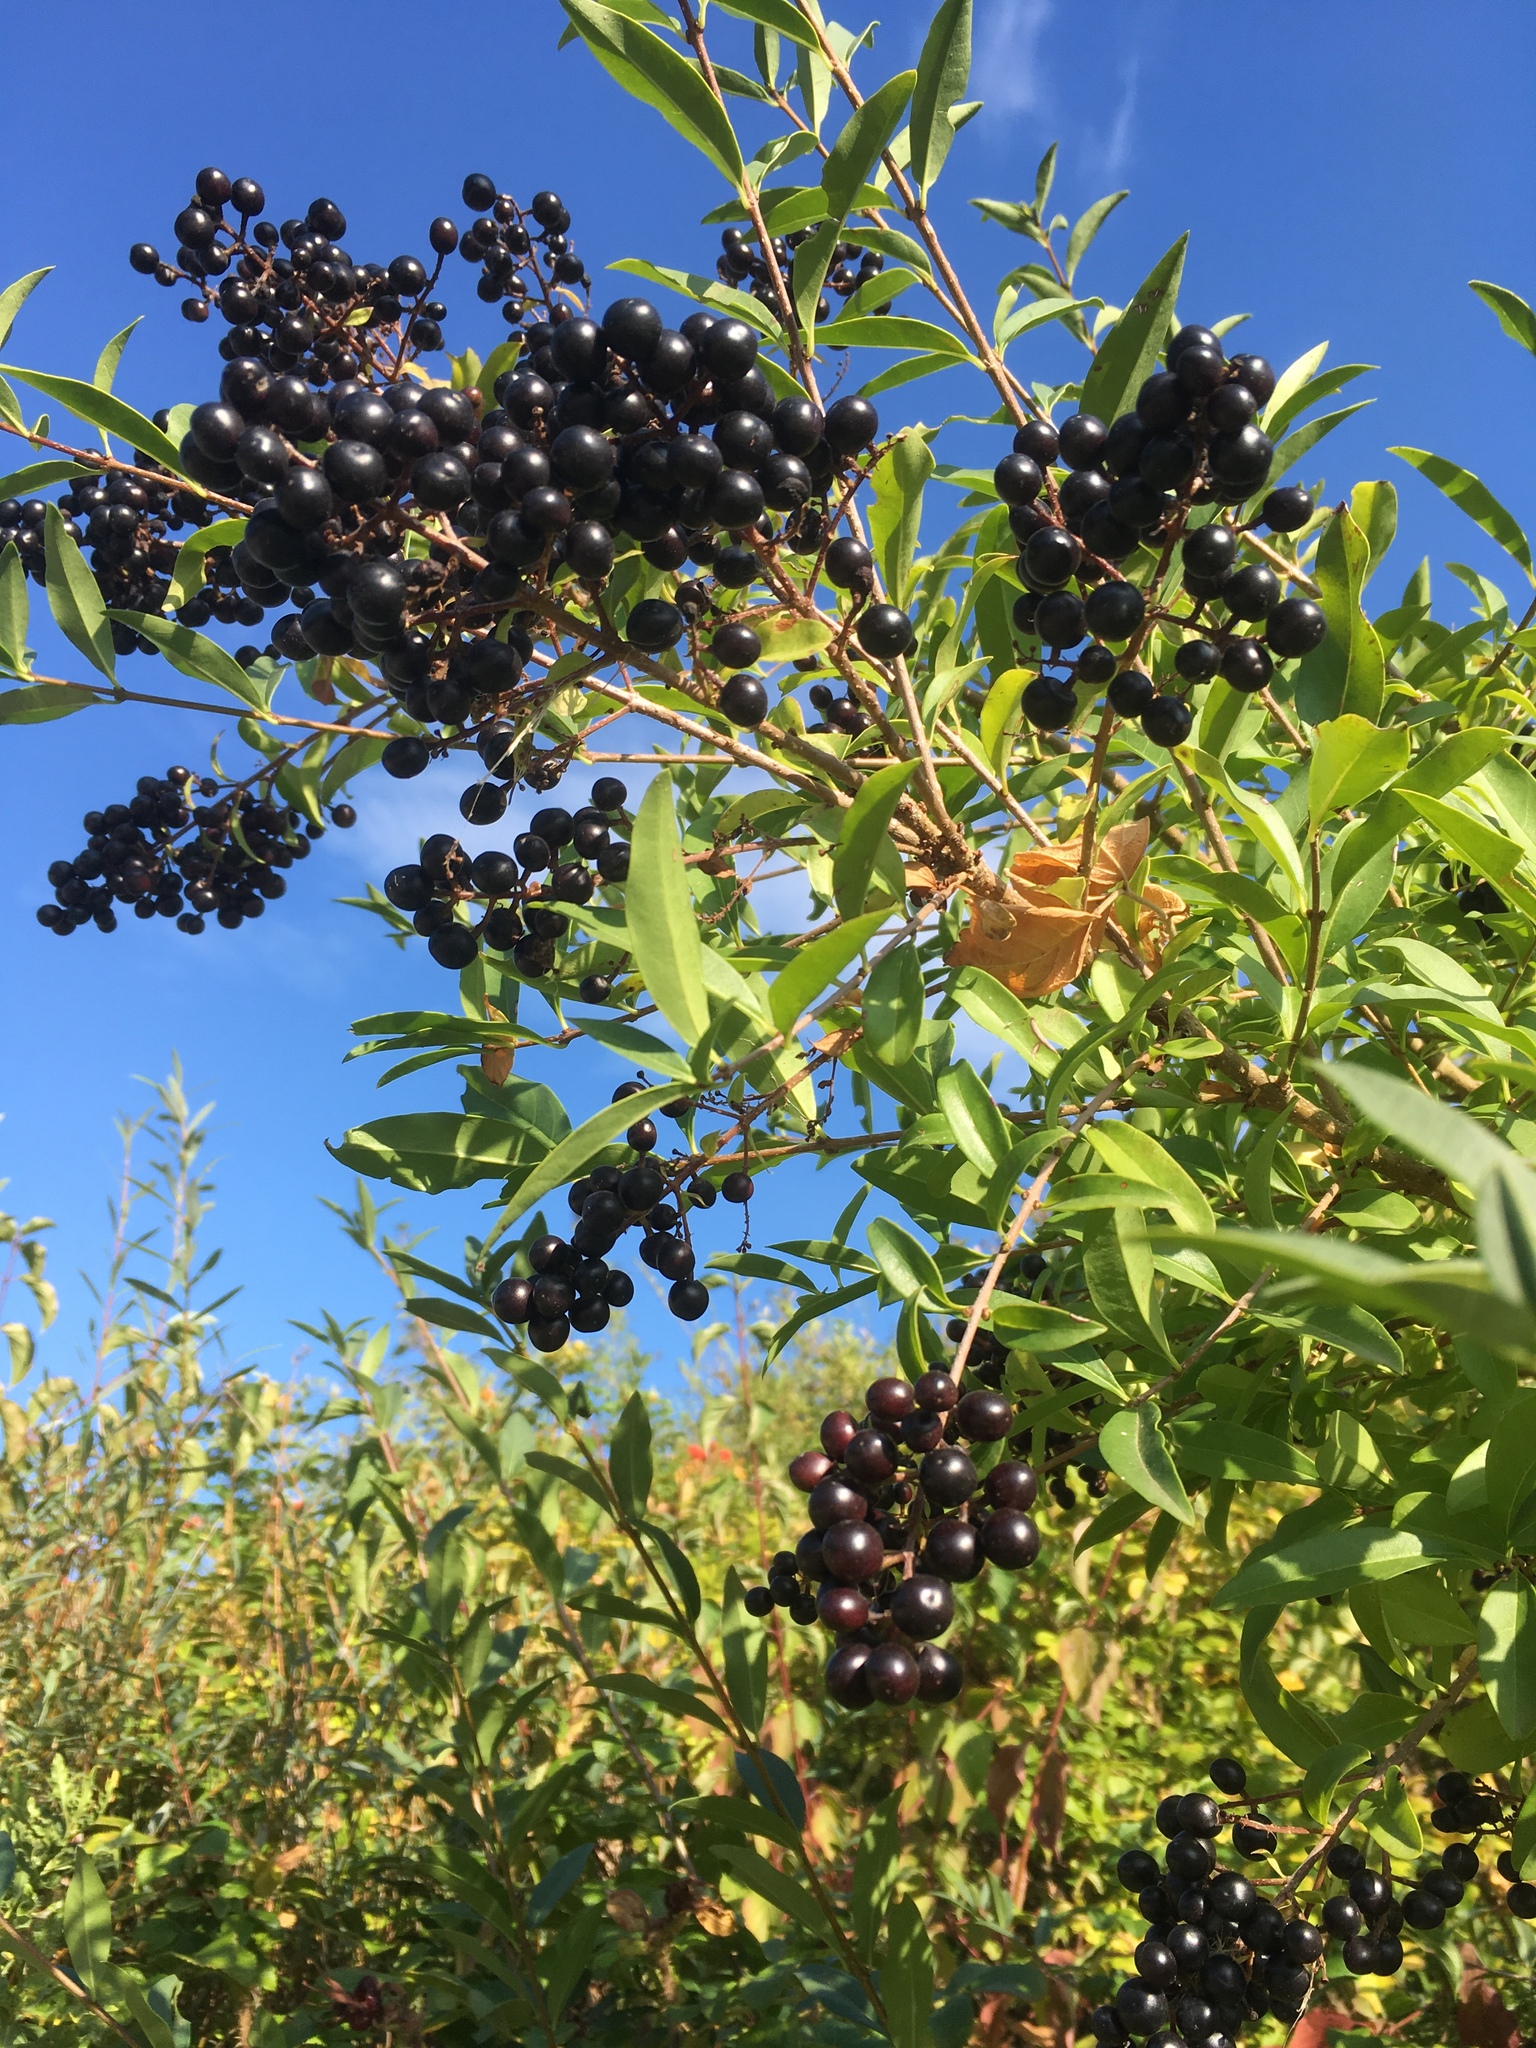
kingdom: Plantae
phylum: Tracheophyta
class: Magnoliopsida
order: Lamiales
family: Oleaceae
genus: Ligustrum
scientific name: Ligustrum vulgare
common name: Wild privet
